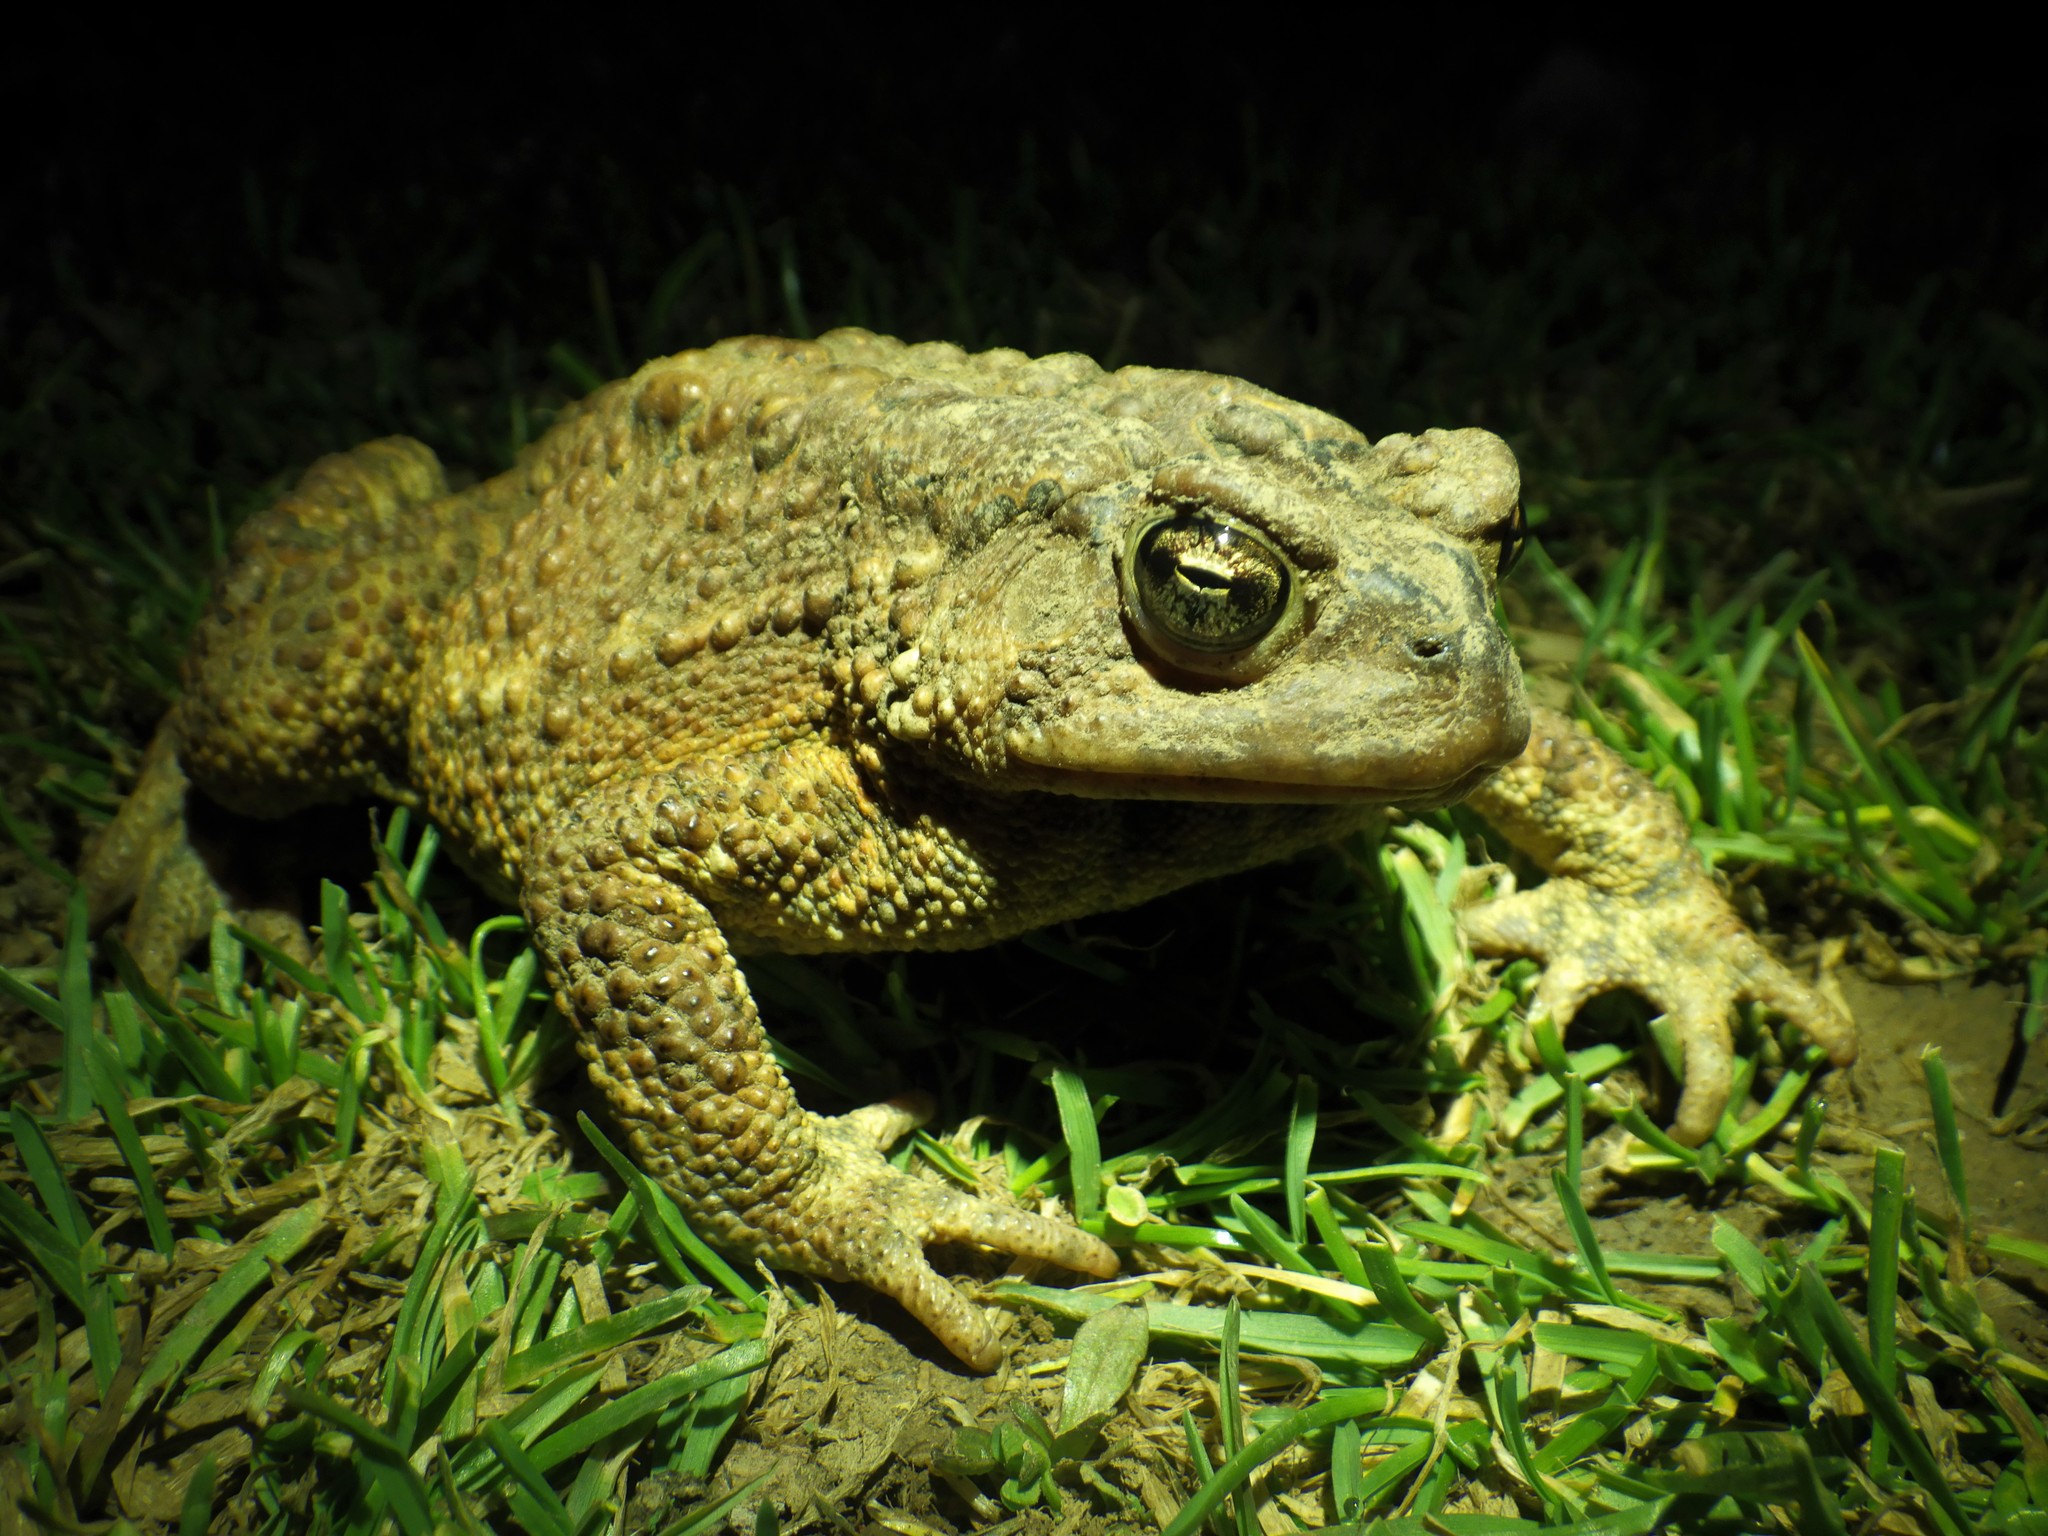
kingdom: Animalia
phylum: Chordata
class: Amphibia
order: Anura
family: Bufonidae
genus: Anaxyrus
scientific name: Anaxyrus americanus
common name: American toad
